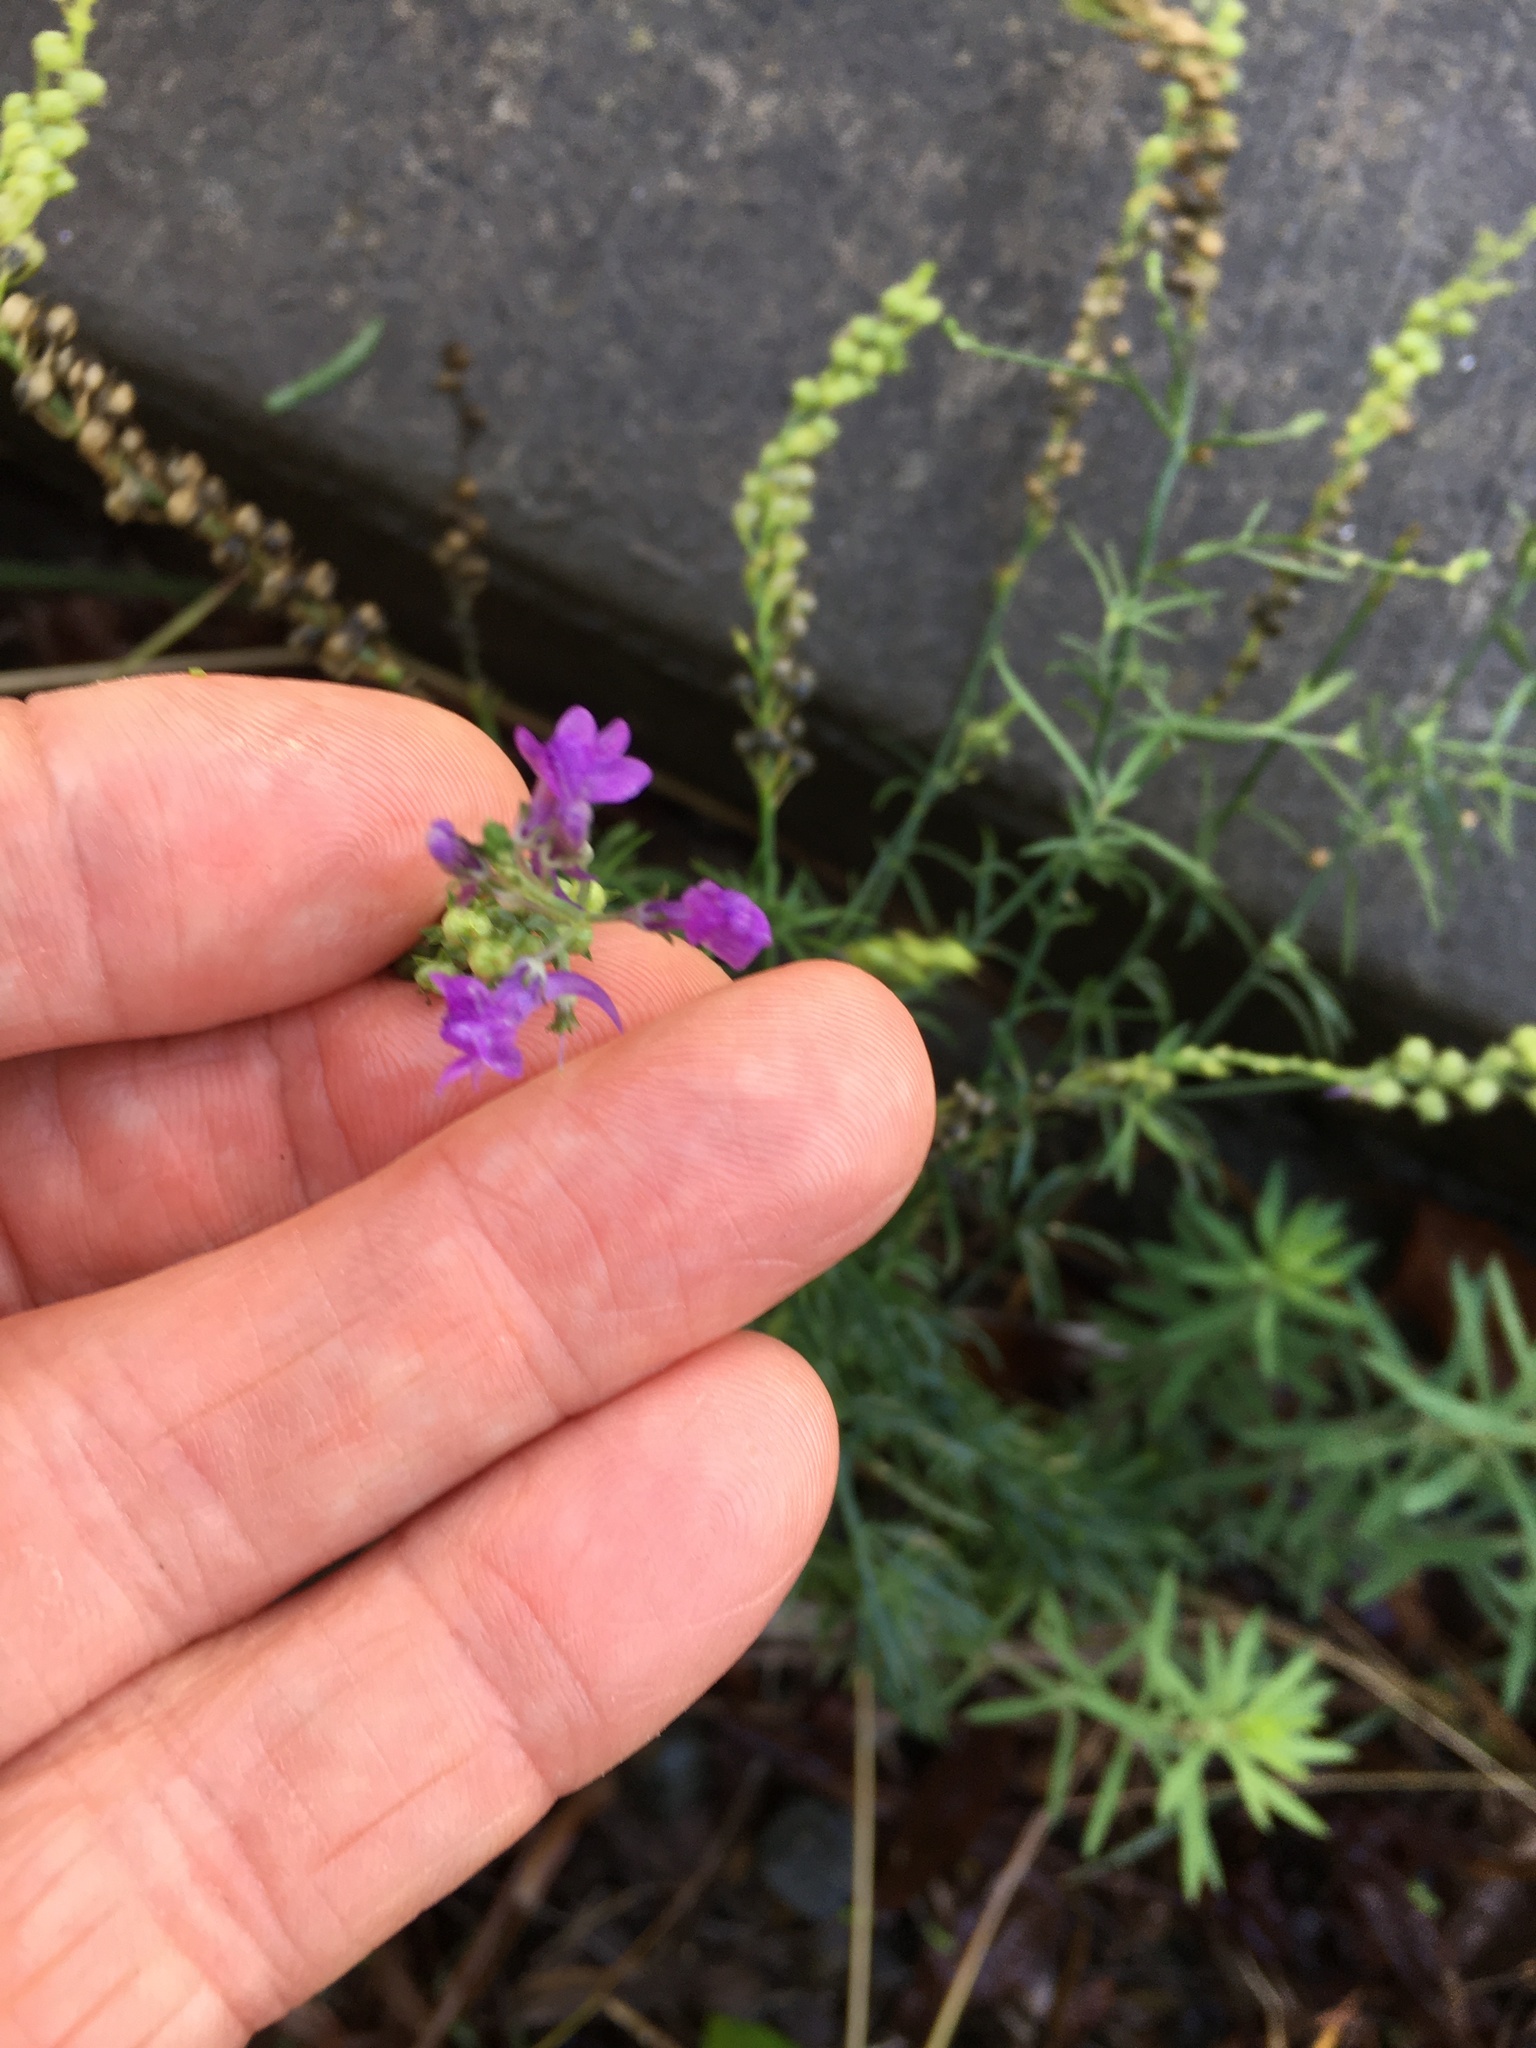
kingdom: Plantae
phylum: Tracheophyta
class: Magnoliopsida
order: Lamiales
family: Plantaginaceae
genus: Linaria
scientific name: Linaria purpurea
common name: Purple toadflax
